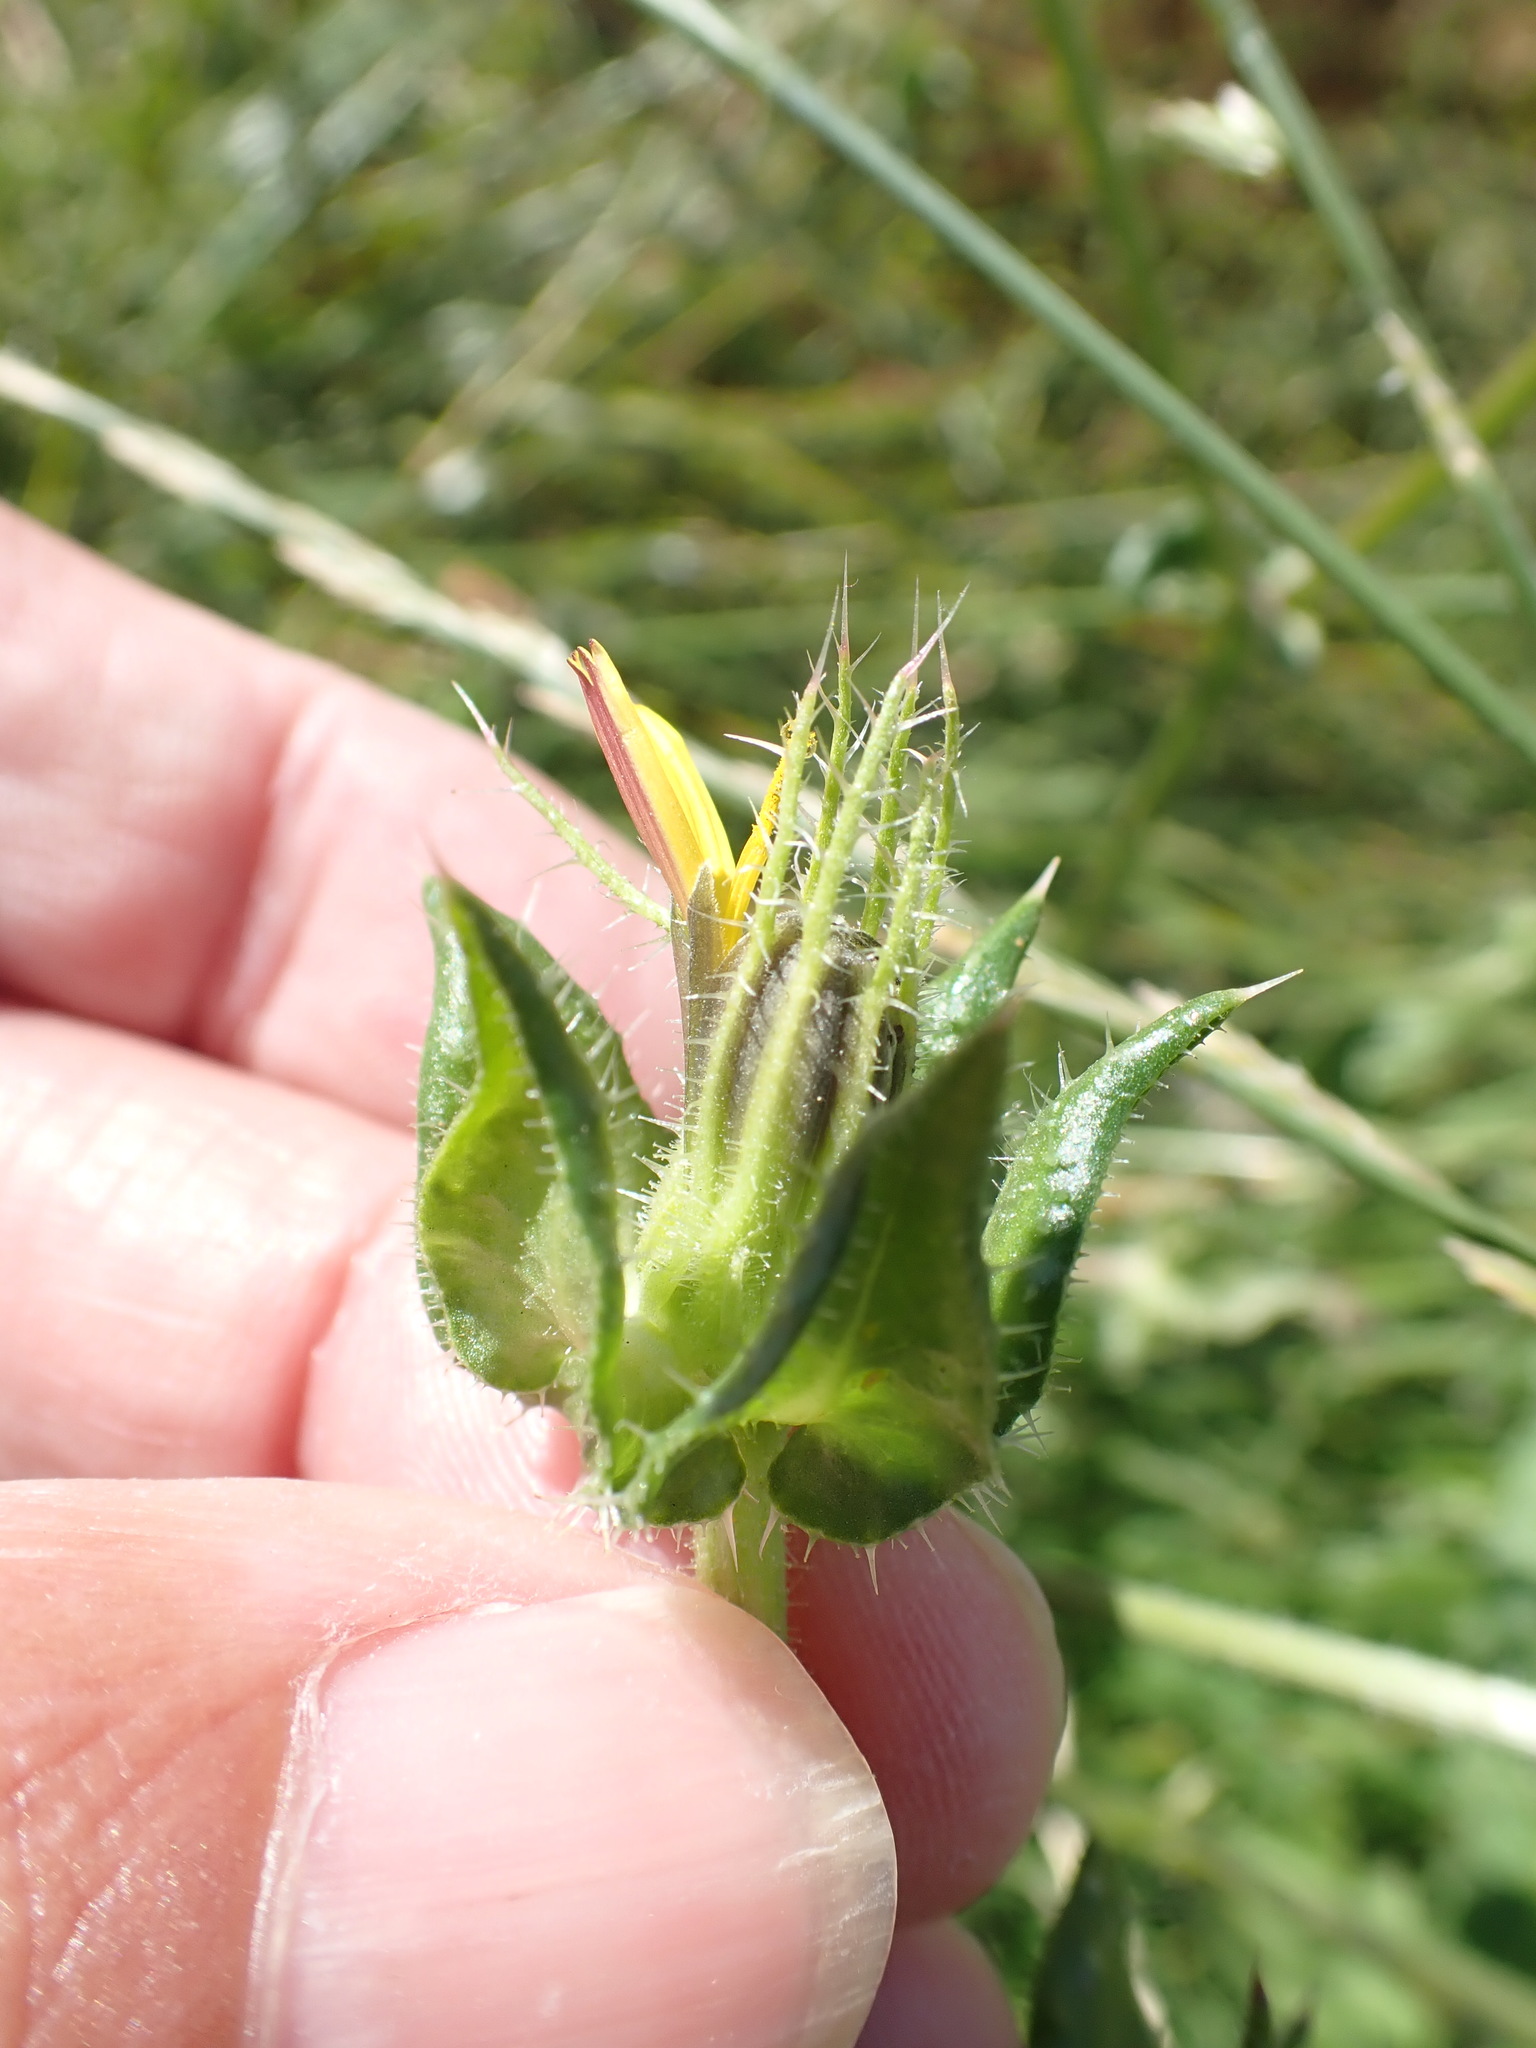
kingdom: Plantae
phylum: Tracheophyta
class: Magnoliopsida
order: Asterales
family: Asteraceae
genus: Helminthotheca
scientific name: Helminthotheca echioides
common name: Ox-tongue
